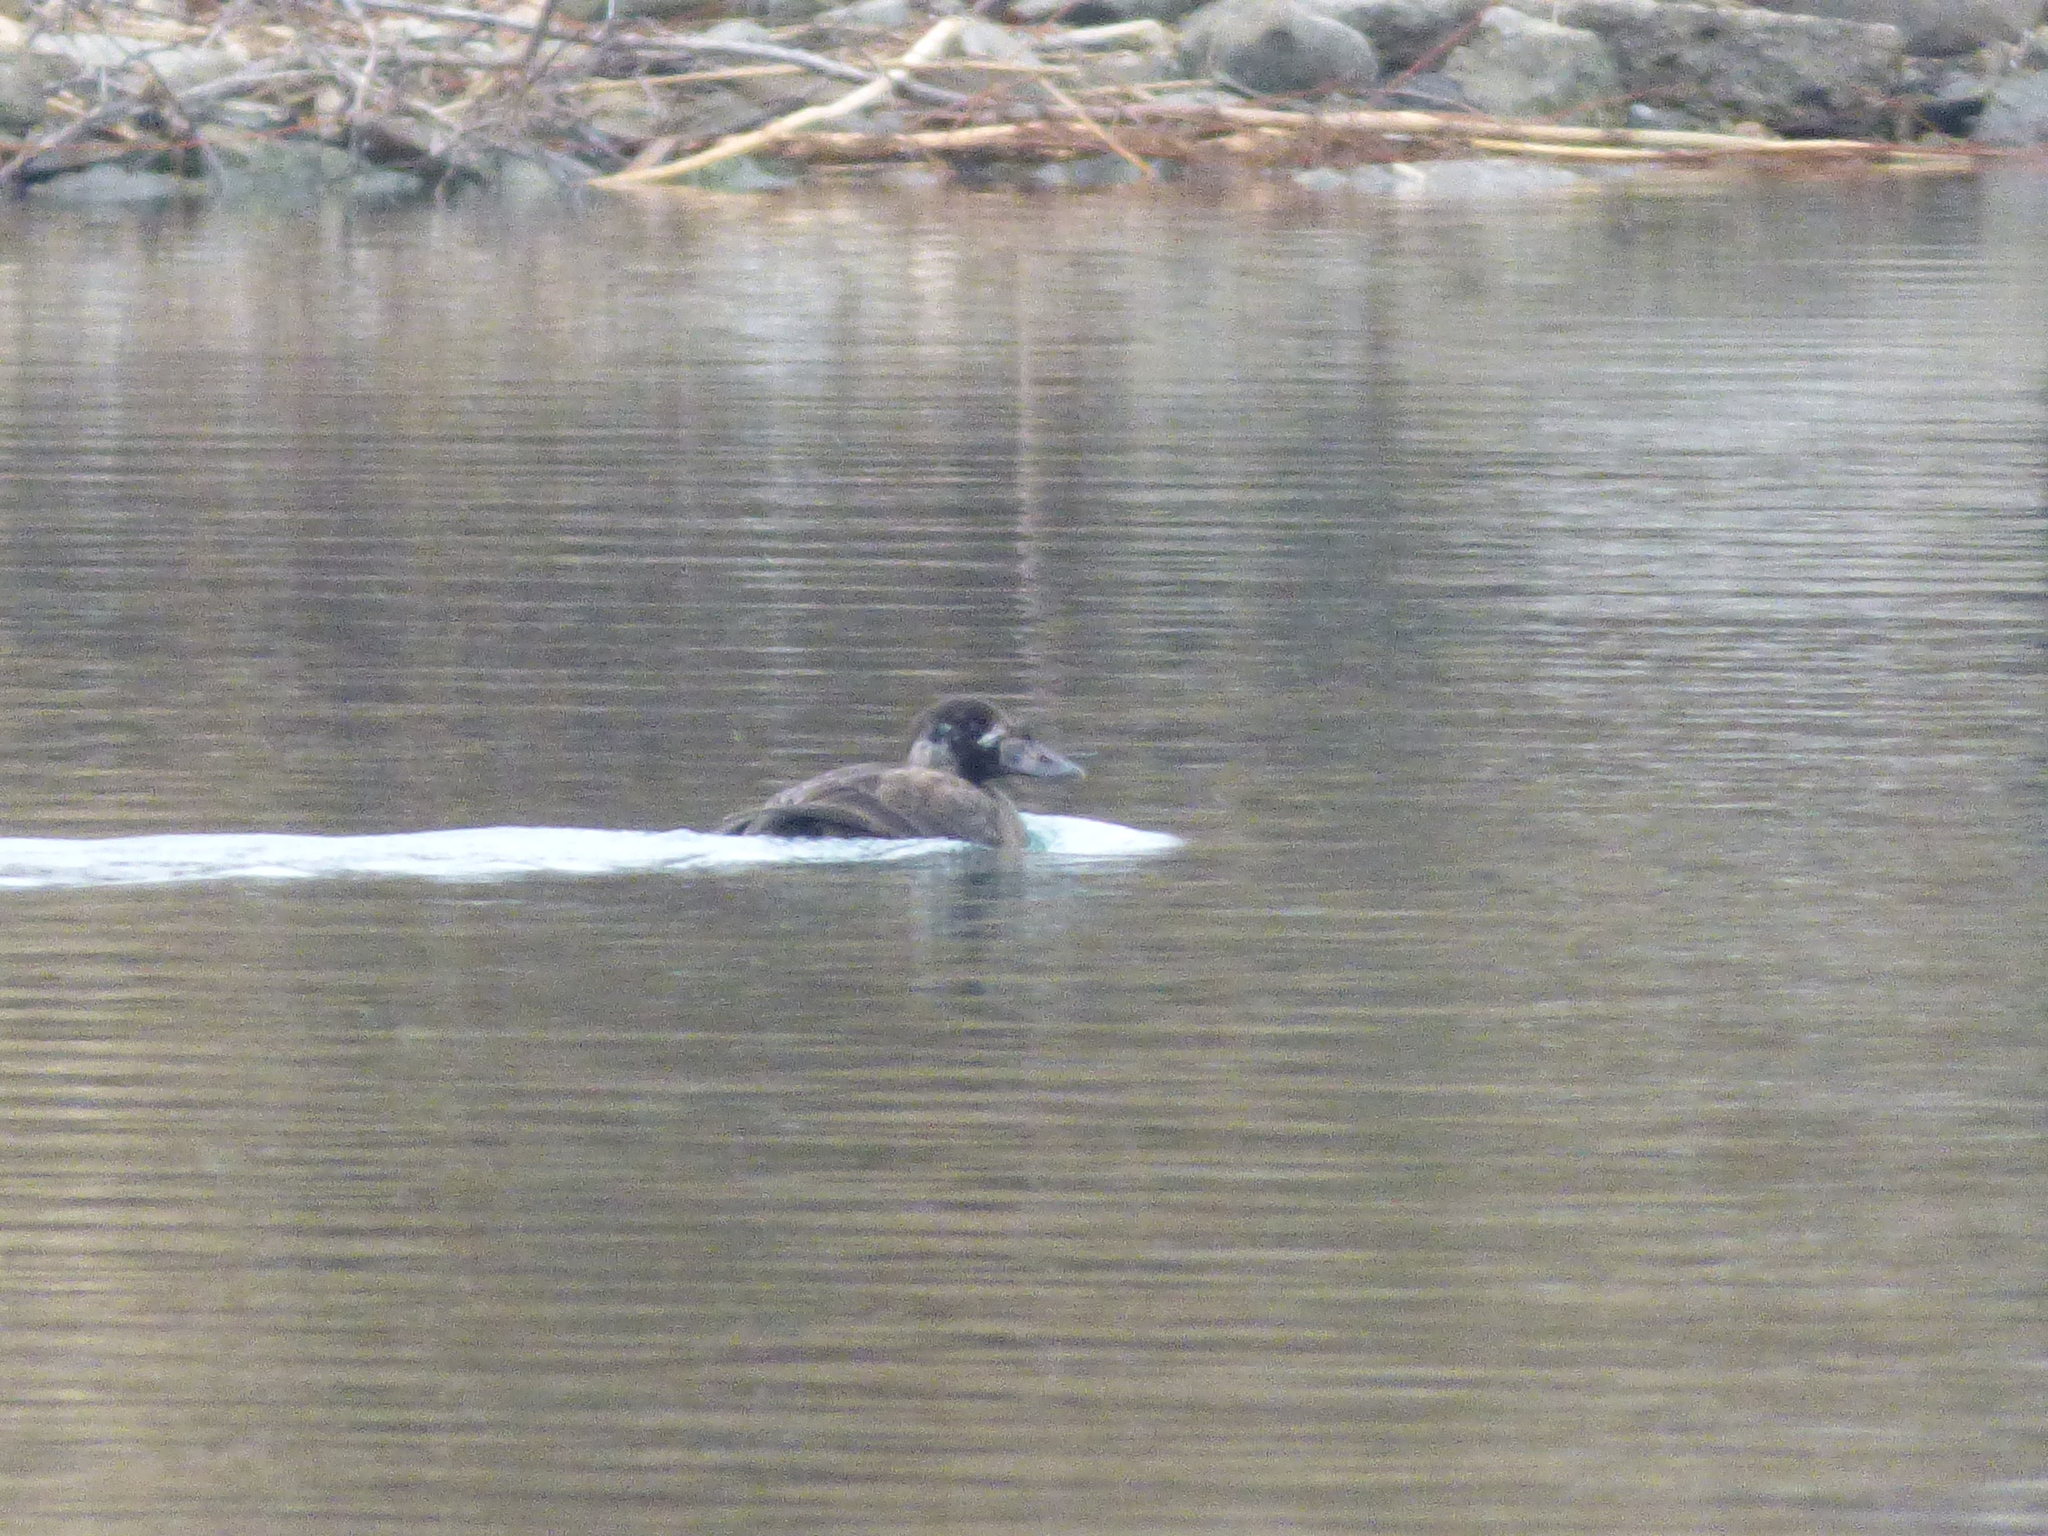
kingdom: Animalia
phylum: Chordata
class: Aves
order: Anseriformes
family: Anatidae
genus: Melanitta
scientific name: Melanitta perspicillata
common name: Surf scoter
